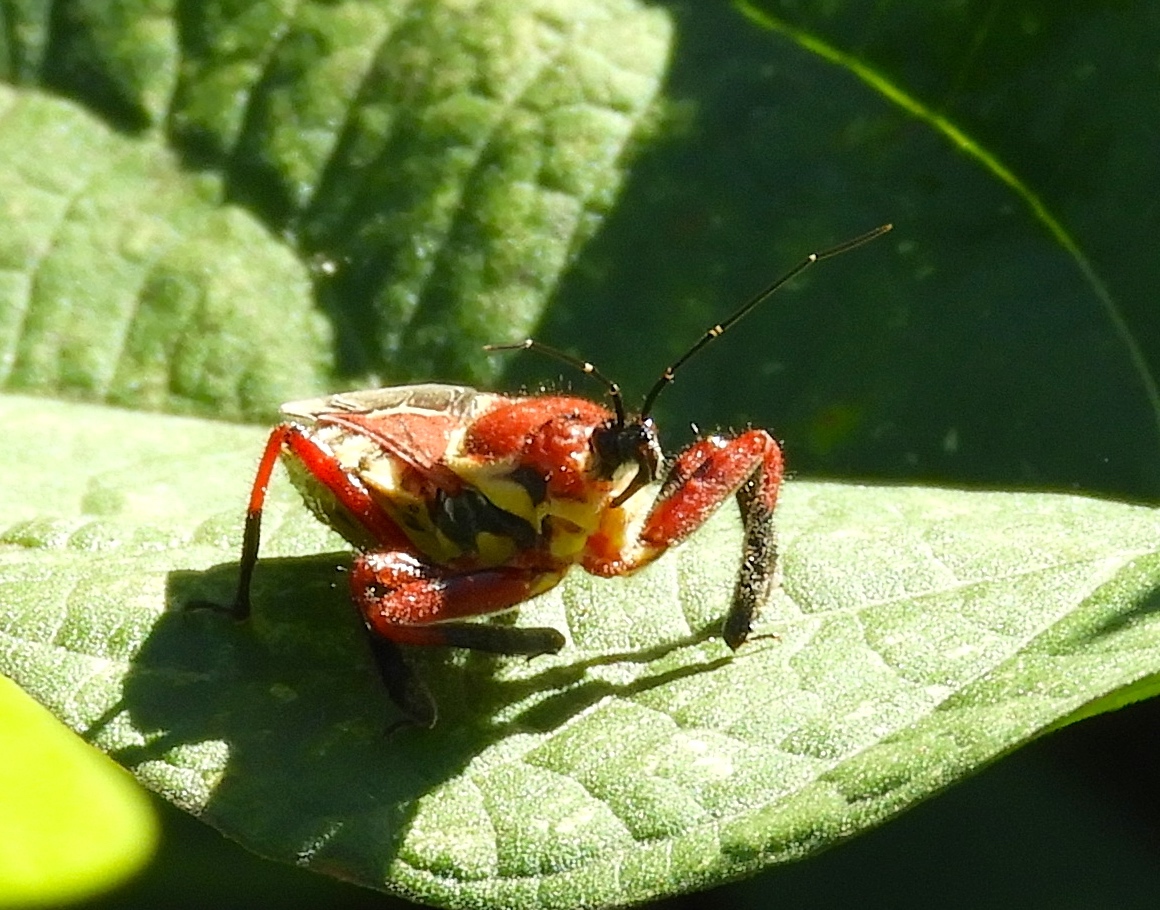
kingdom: Animalia
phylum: Arthropoda
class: Insecta
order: Hemiptera
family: Reduviidae
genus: Apiomerus
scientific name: Apiomerus flaviventris
